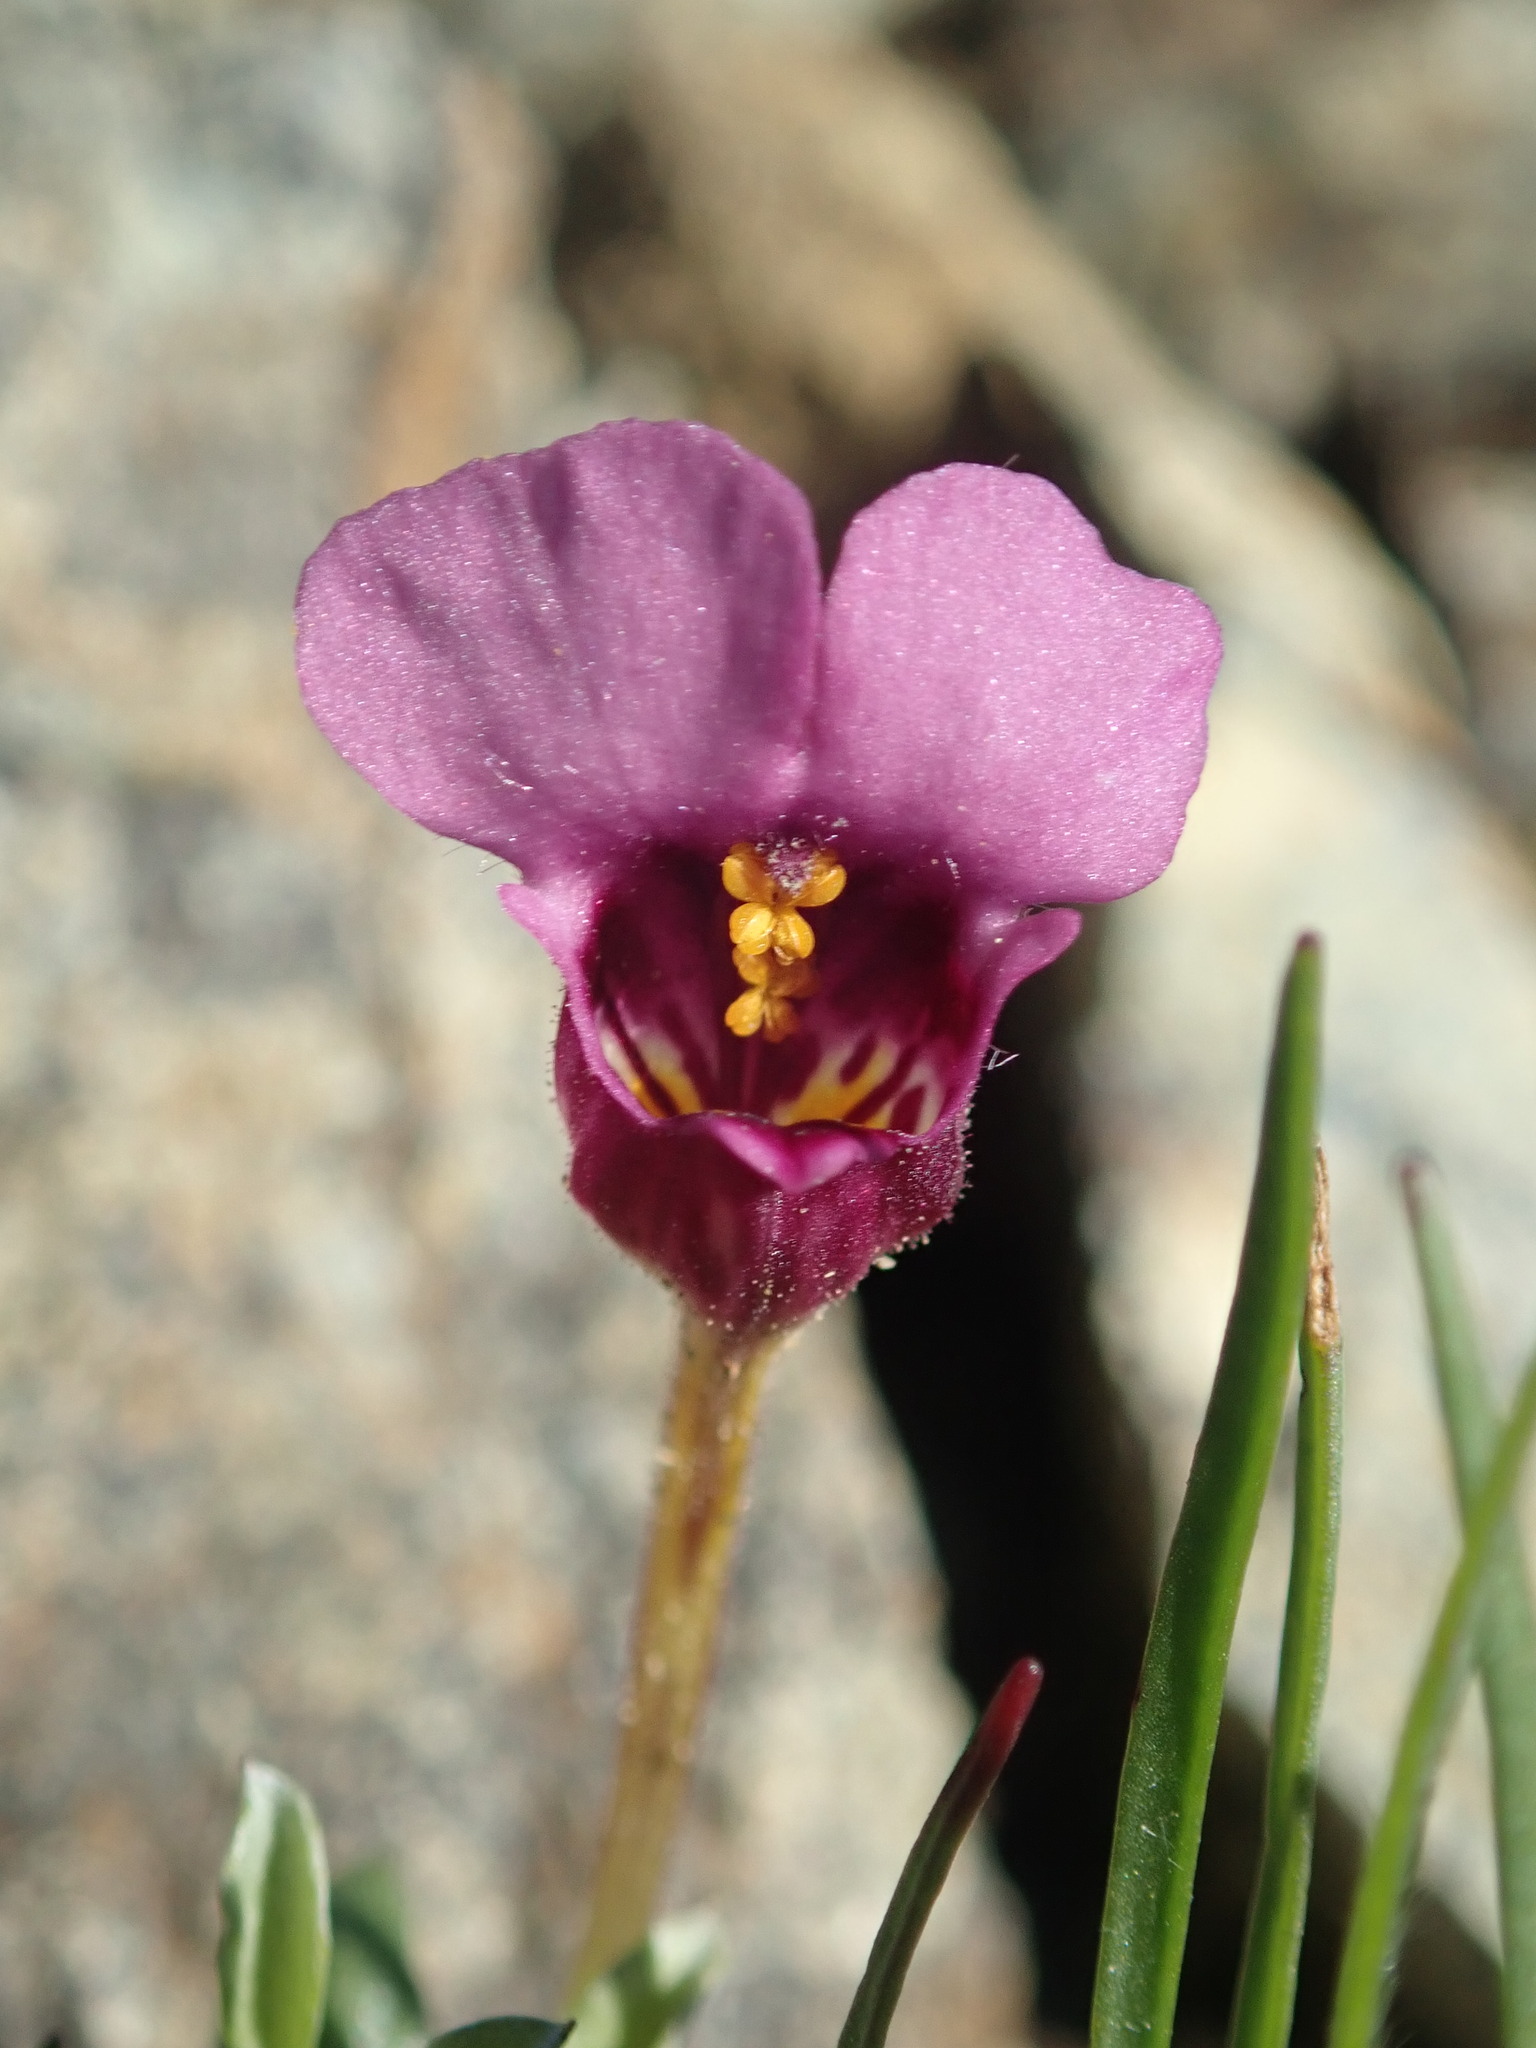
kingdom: Plantae
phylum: Tracheophyta
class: Magnoliopsida
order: Lamiales
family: Phrymaceae
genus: Diplacus
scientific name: Diplacus douglasii
